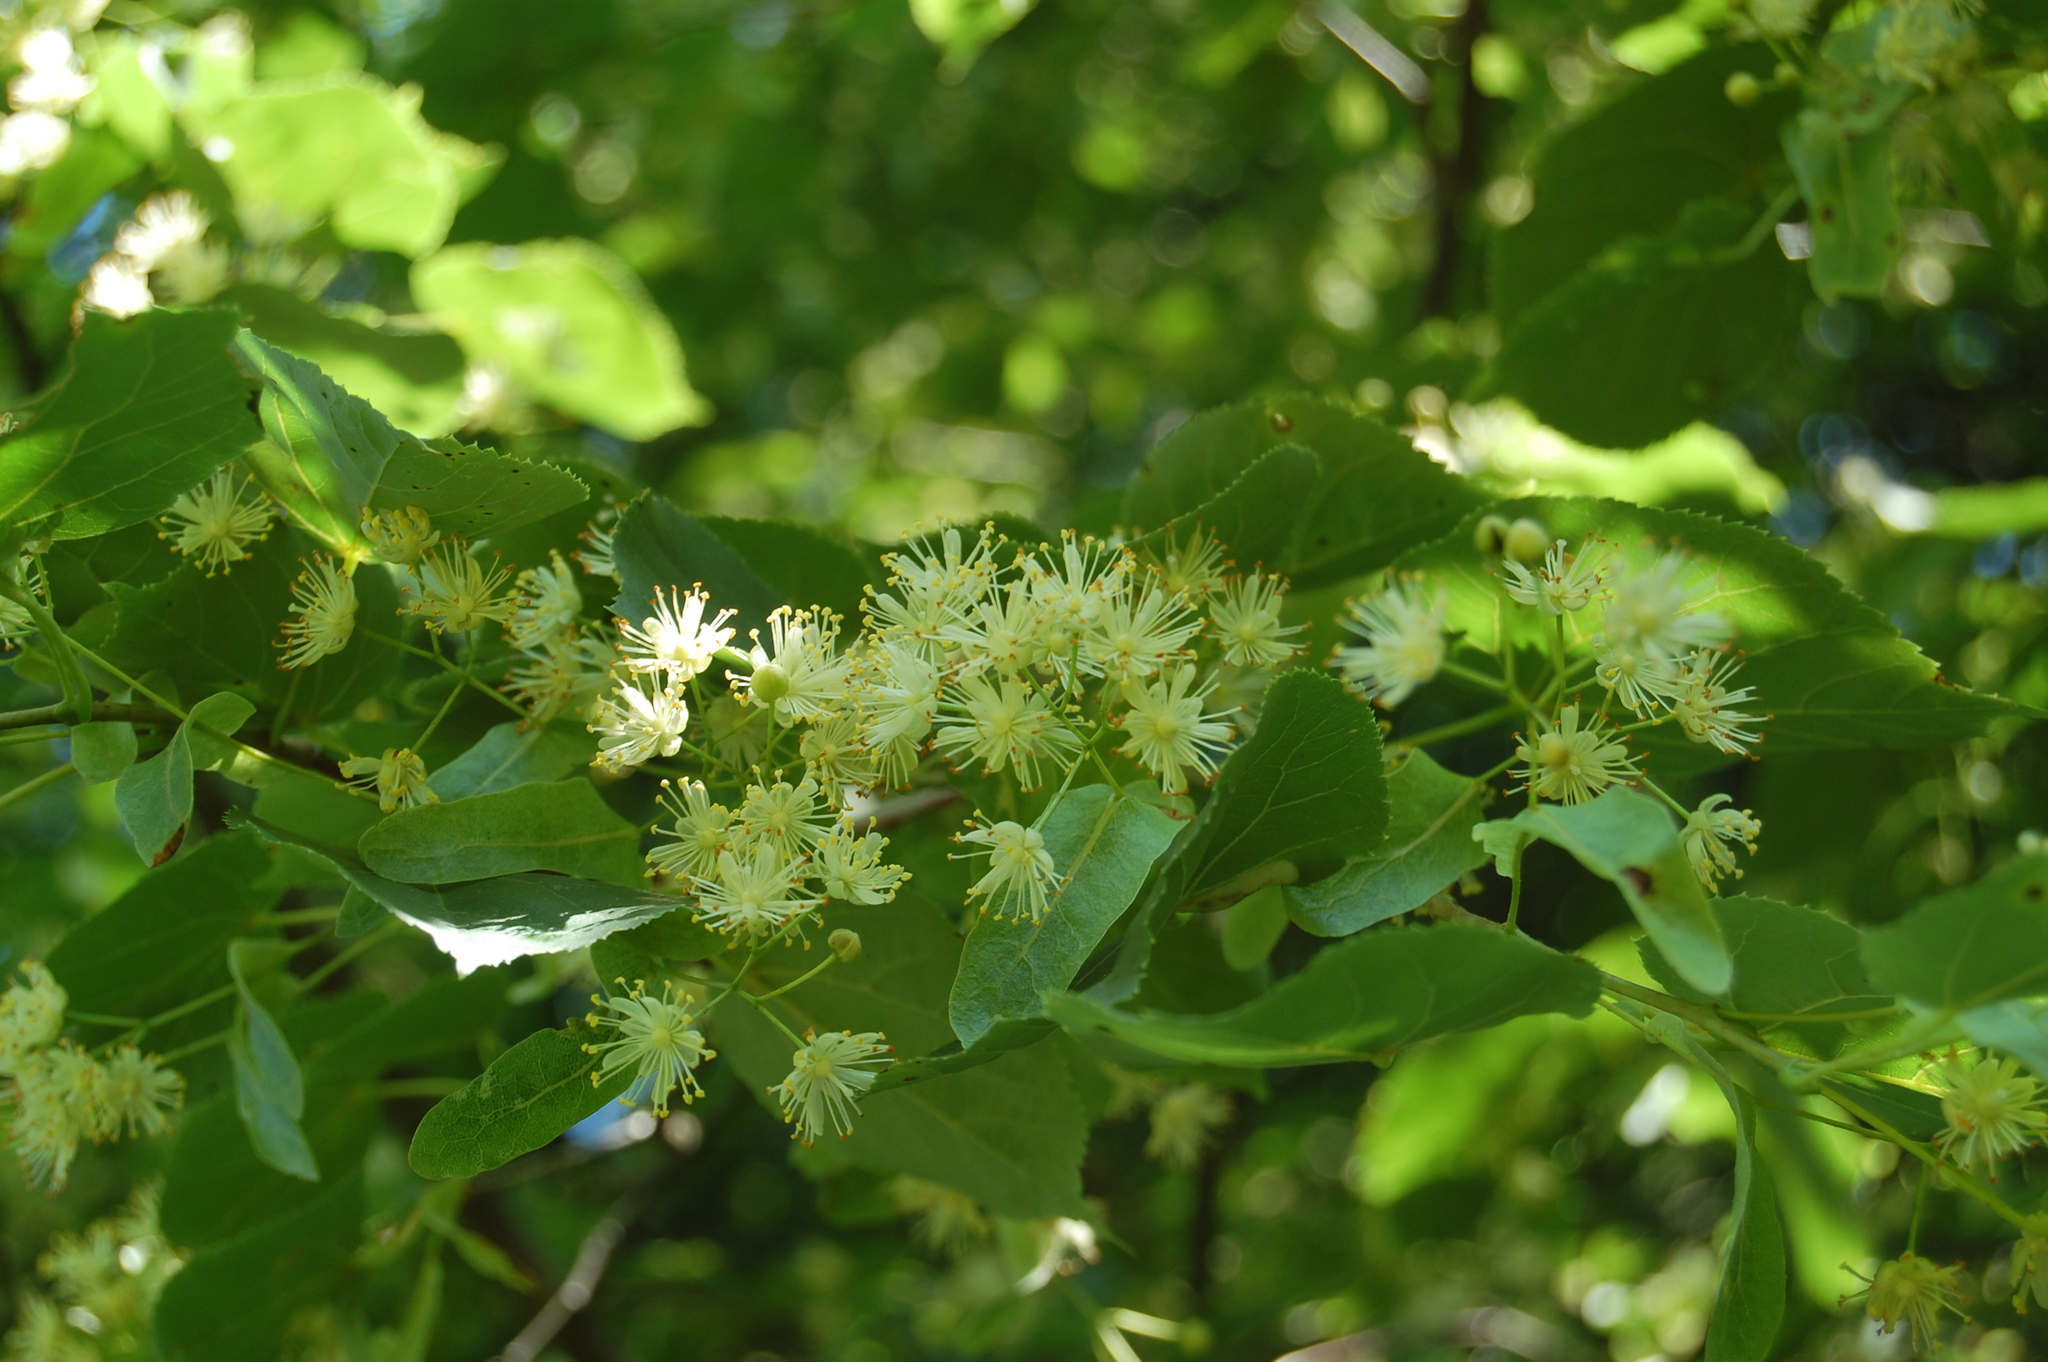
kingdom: Plantae
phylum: Tracheophyta
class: Magnoliopsida
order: Malvales
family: Malvaceae
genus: Tilia
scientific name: Tilia cordata
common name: Small-leaved lime
